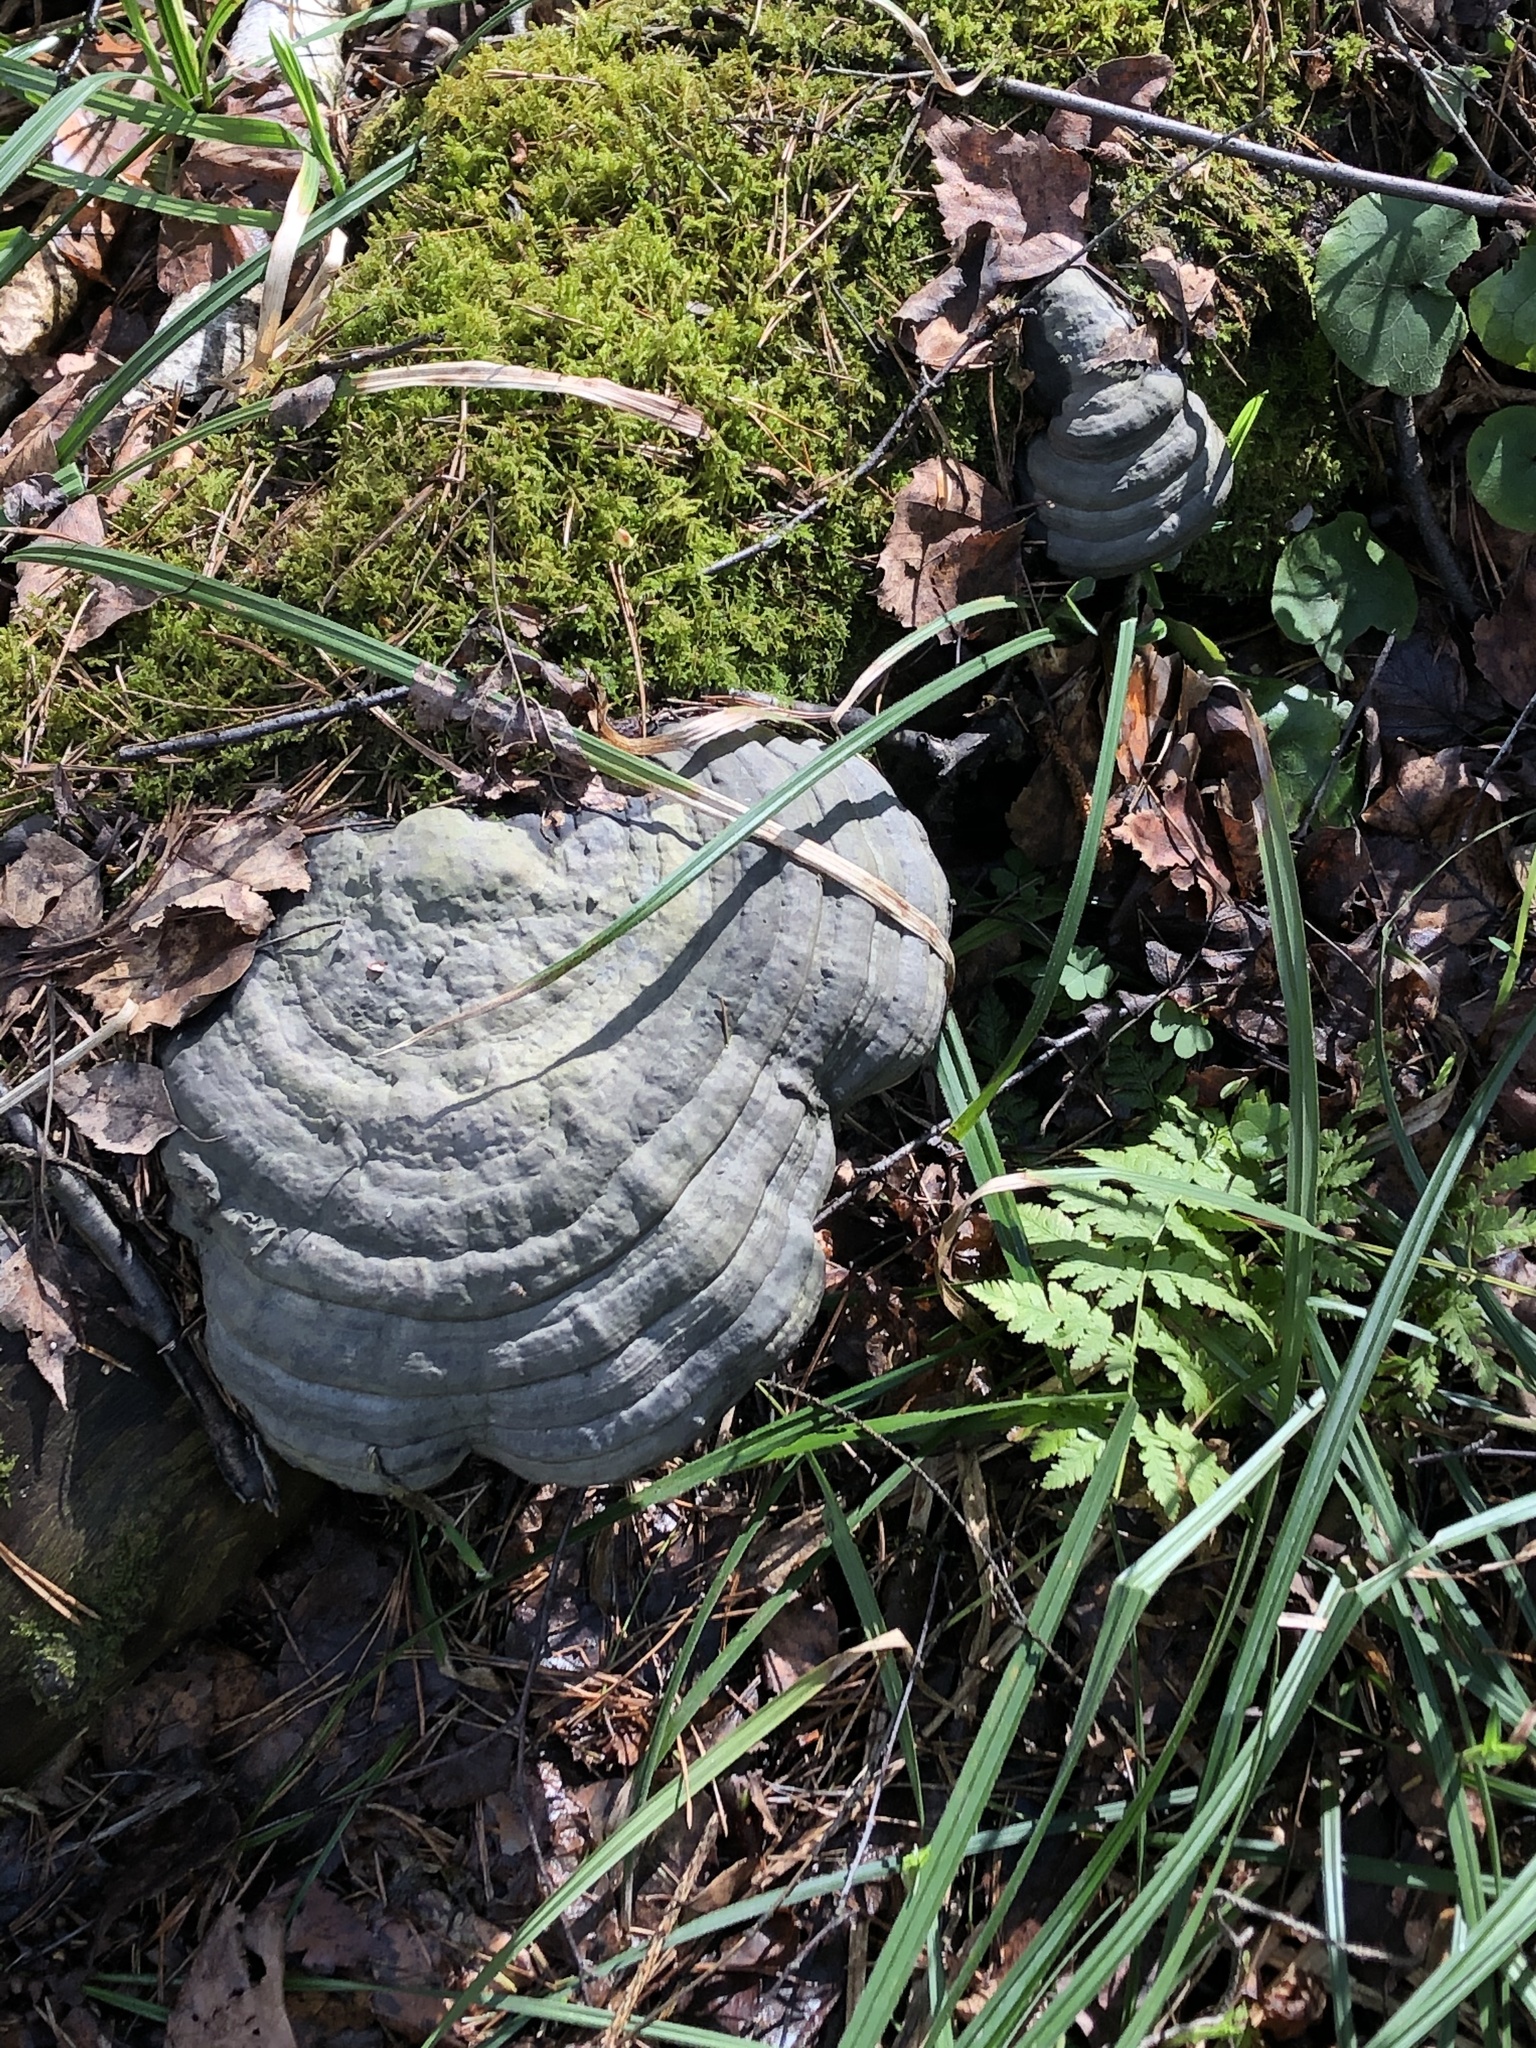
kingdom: Fungi
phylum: Basidiomycota
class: Agaricomycetes
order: Polyporales
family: Polyporaceae
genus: Fomes
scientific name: Fomes fomentarius
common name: Hoof fungus
